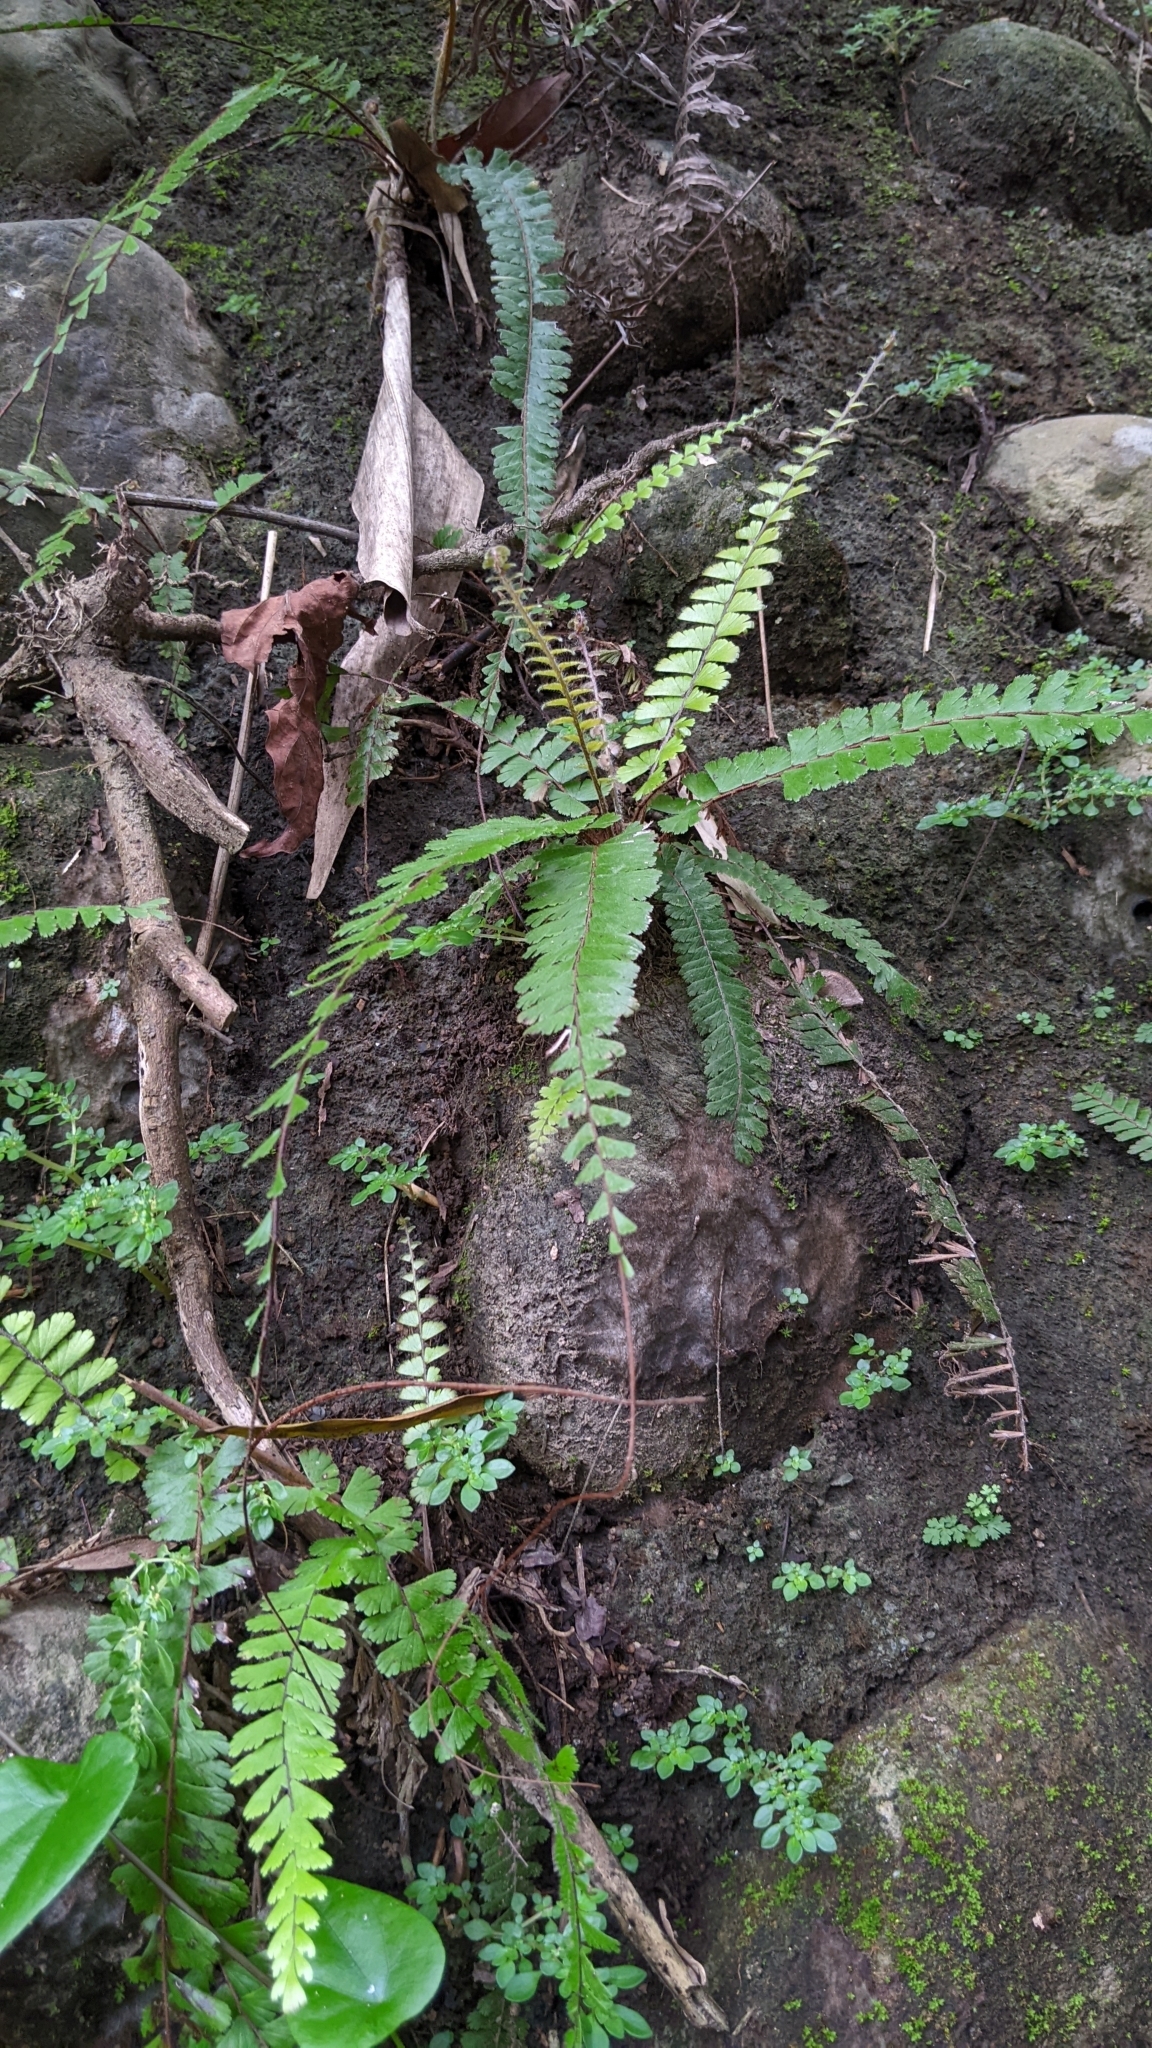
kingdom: Plantae
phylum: Tracheophyta
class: Polypodiopsida
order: Polypodiales
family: Pteridaceae
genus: Adiantum
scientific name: Adiantum caudatum
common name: Tailed maidenhair
